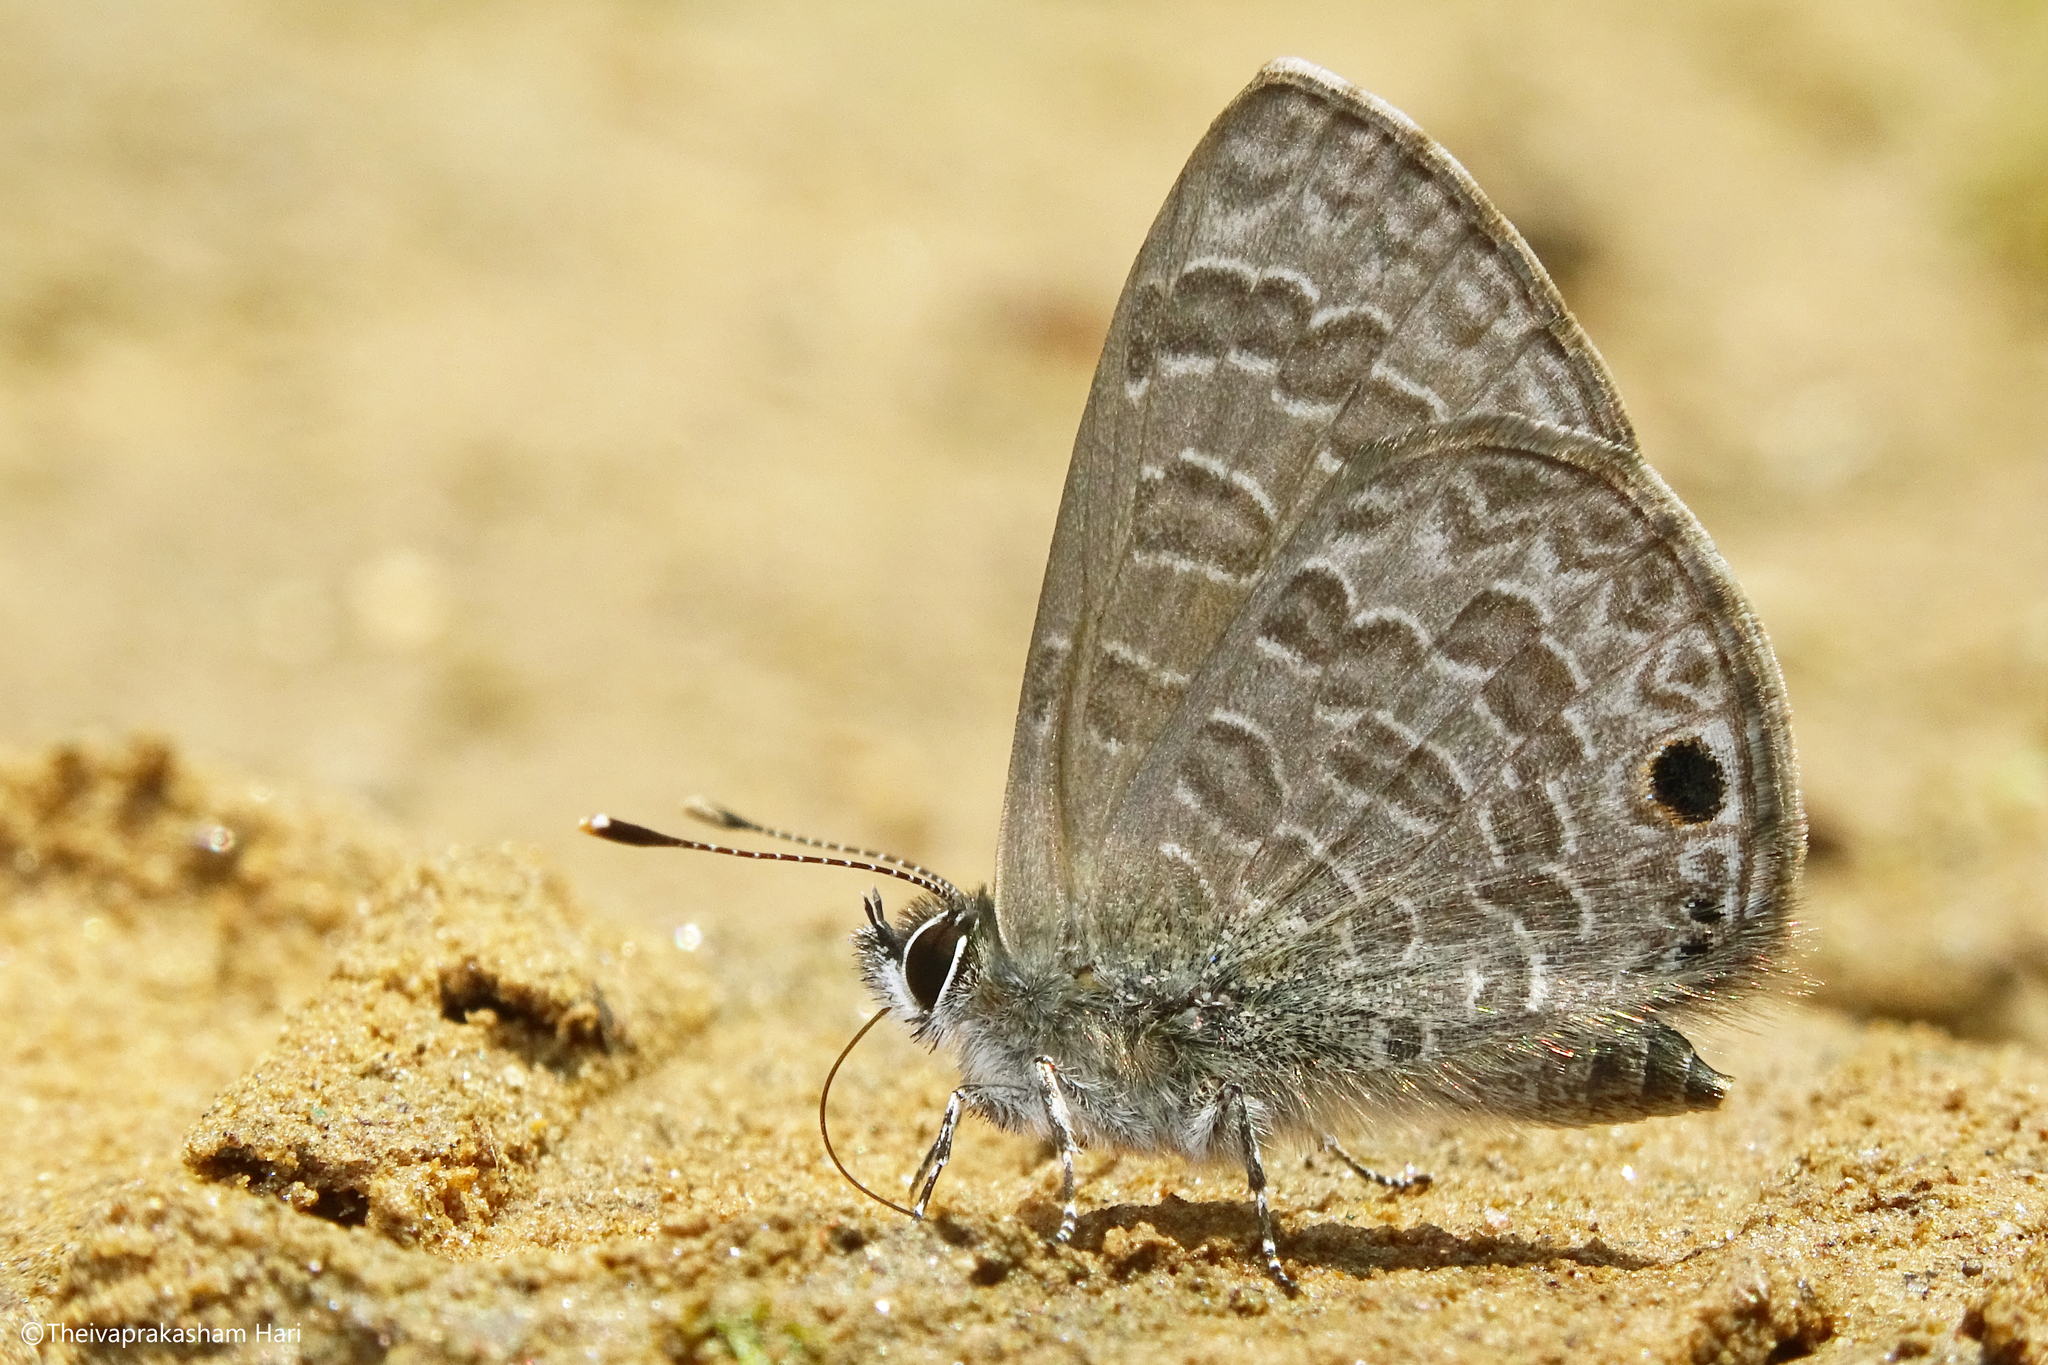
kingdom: Animalia
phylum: Arthropoda
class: Insecta
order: Lepidoptera
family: Lycaenidae
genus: Prosotas
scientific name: Prosotas noreia
